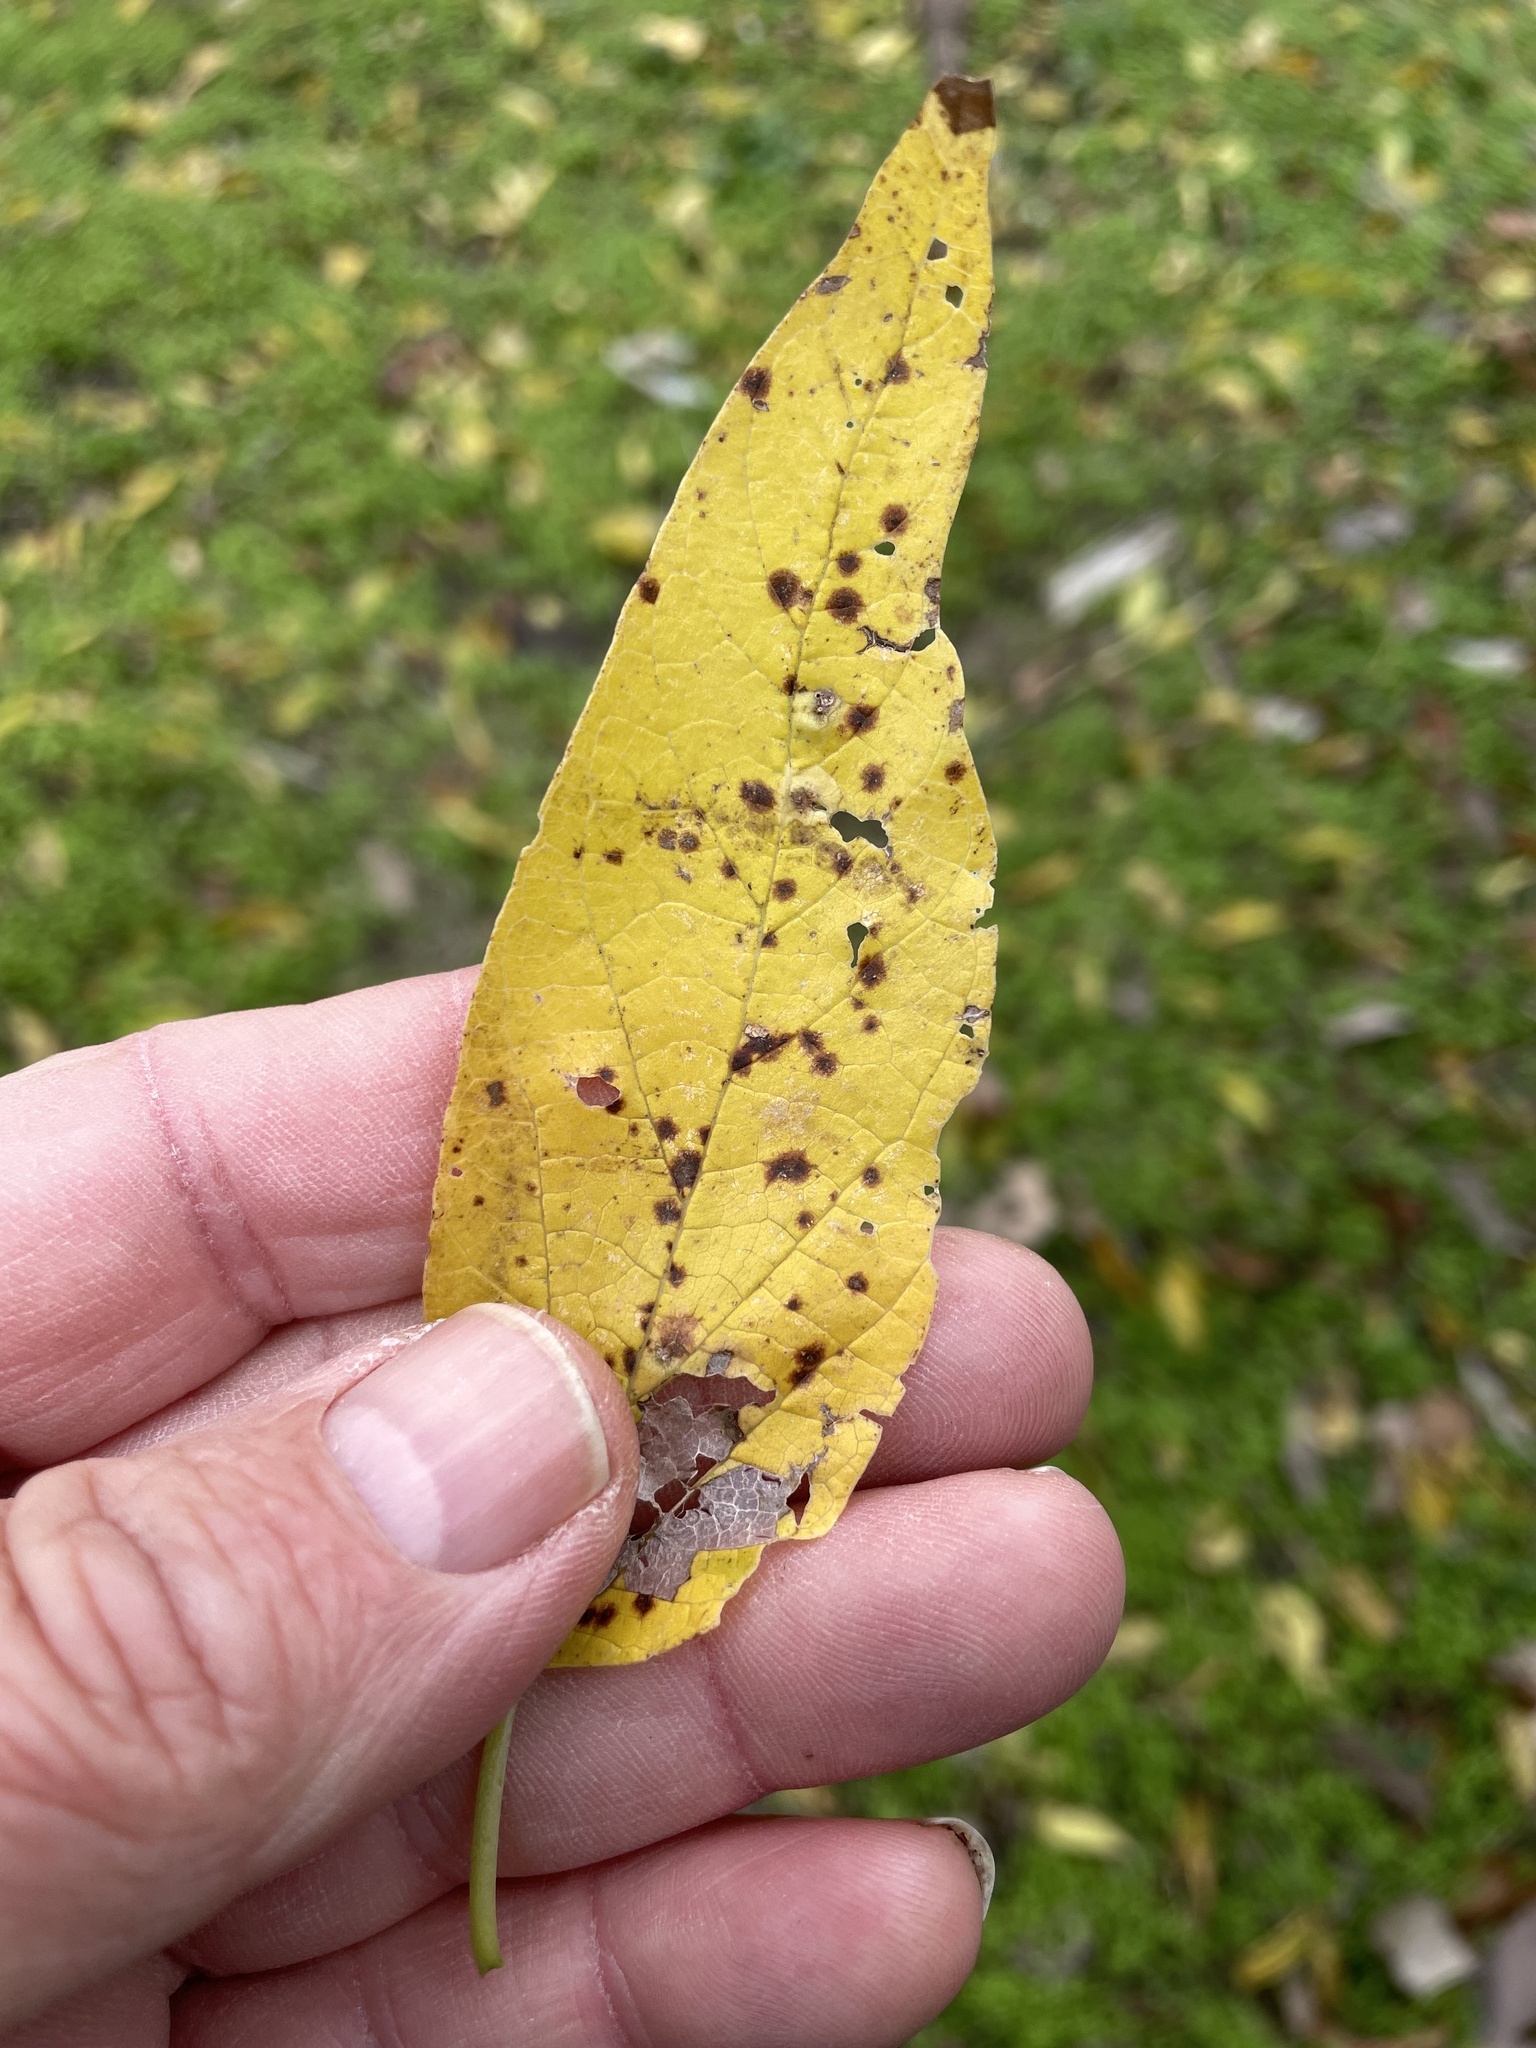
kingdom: Plantae
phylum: Tracheophyta
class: Magnoliopsida
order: Rosales
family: Cannabaceae
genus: Celtis
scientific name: Celtis laevigata
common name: Sugarberry
